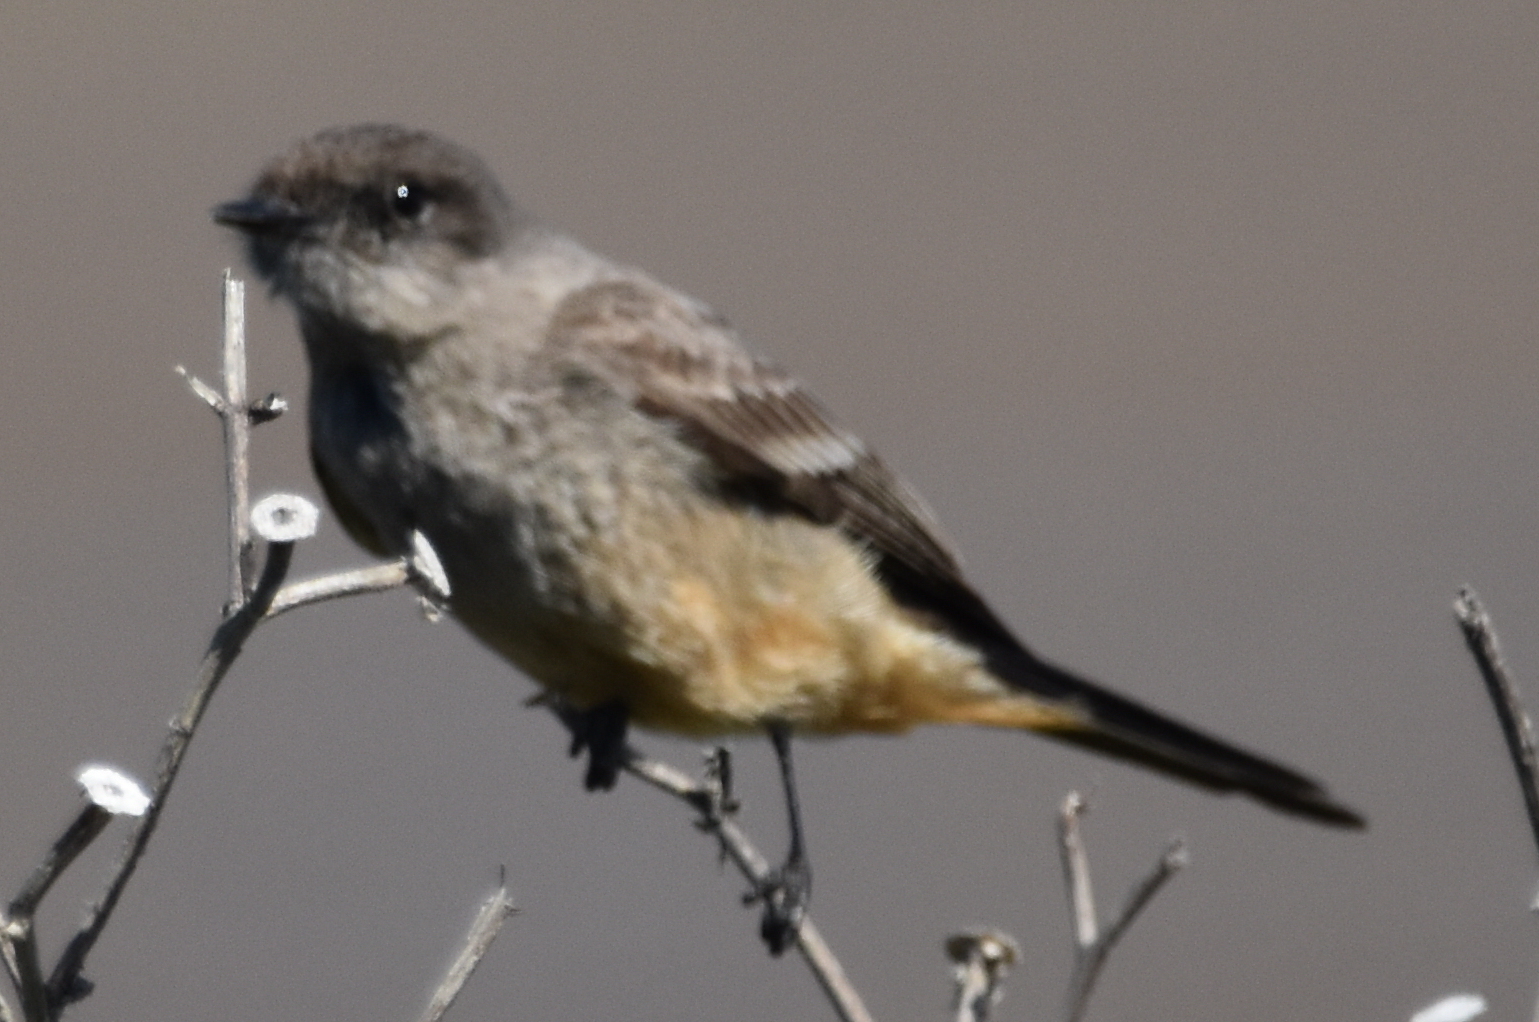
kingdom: Animalia
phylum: Chordata
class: Aves
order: Passeriformes
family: Tyrannidae
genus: Sayornis
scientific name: Sayornis saya
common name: Say's phoebe
